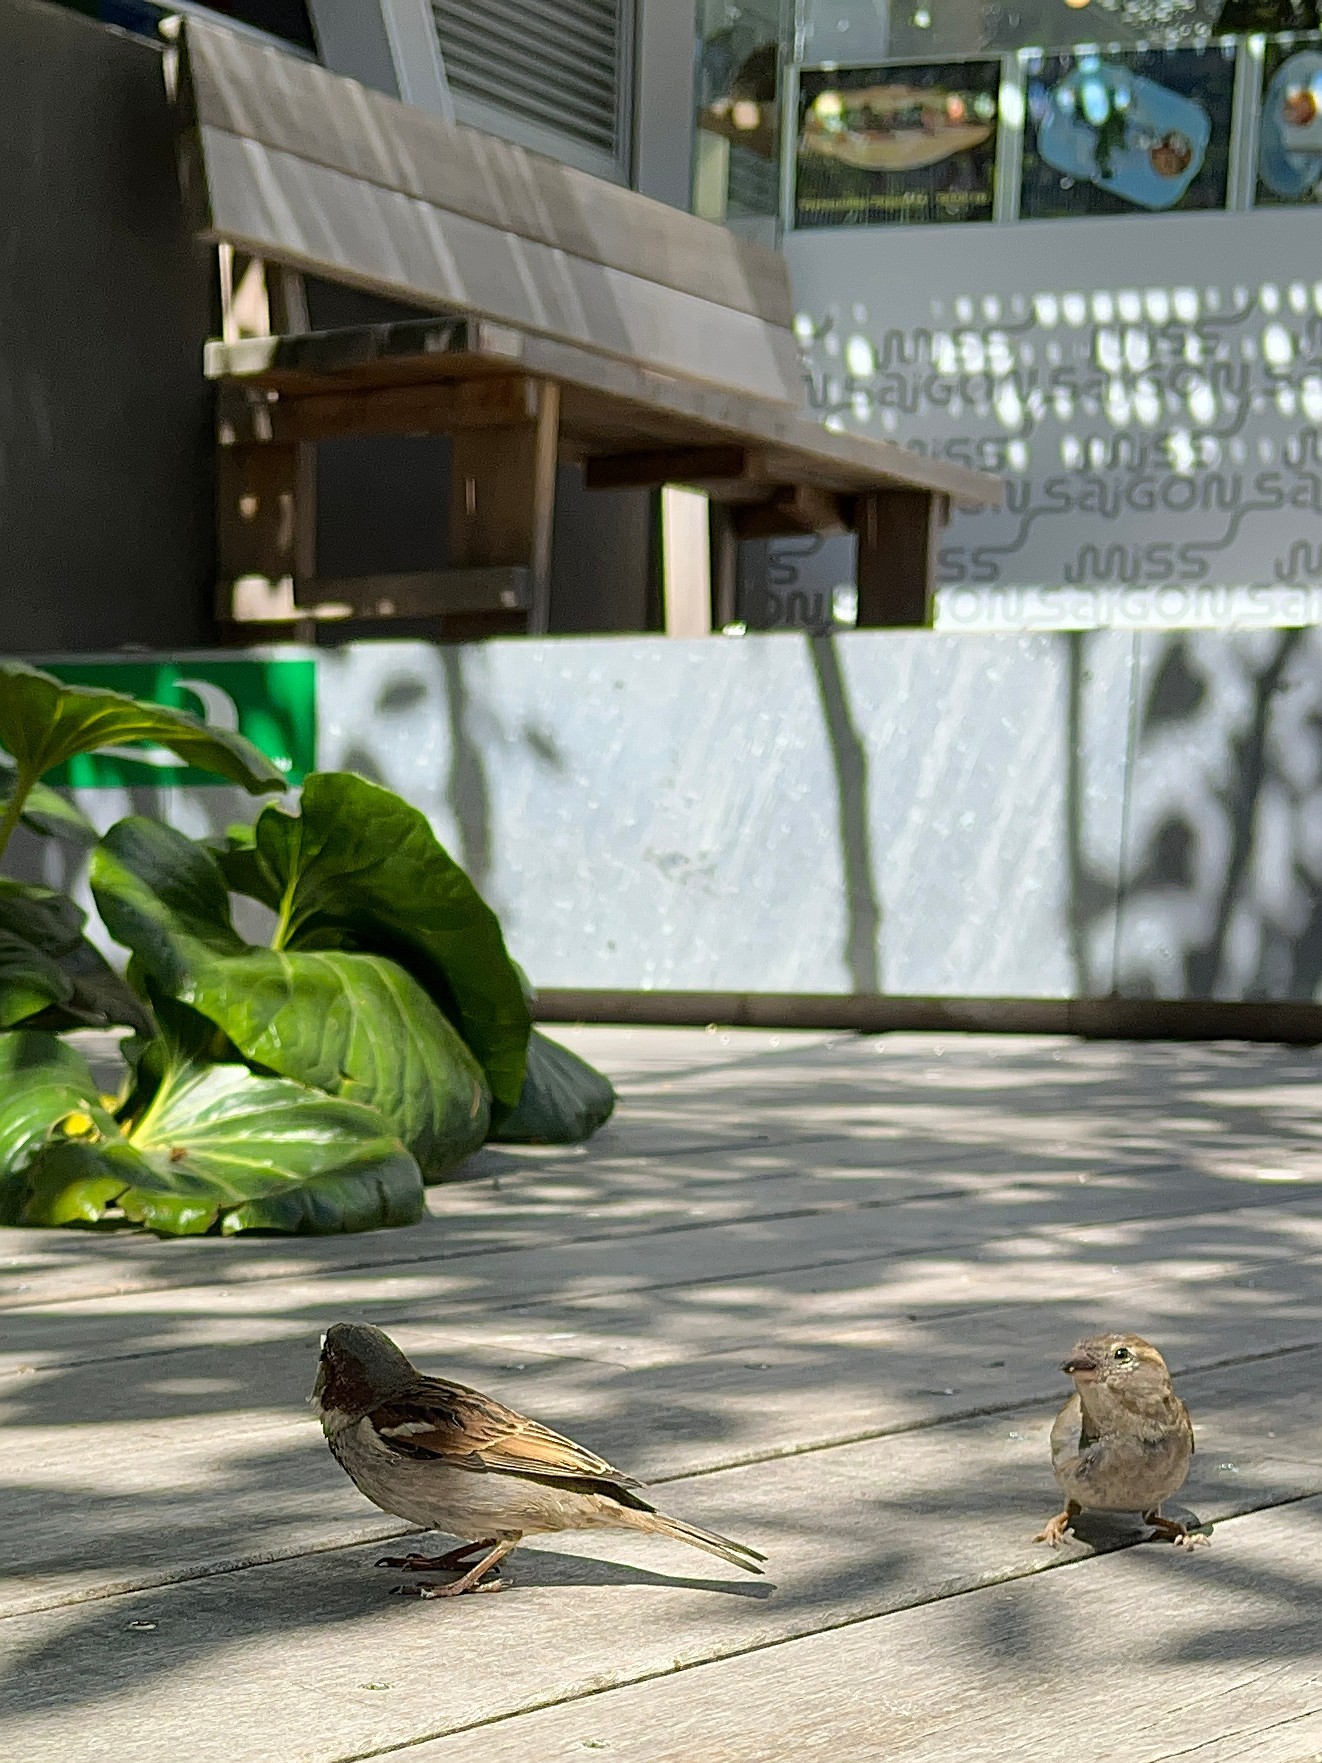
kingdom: Animalia
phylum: Chordata
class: Aves
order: Passeriformes
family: Passeridae
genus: Passer
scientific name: Passer domesticus
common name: House sparrow
